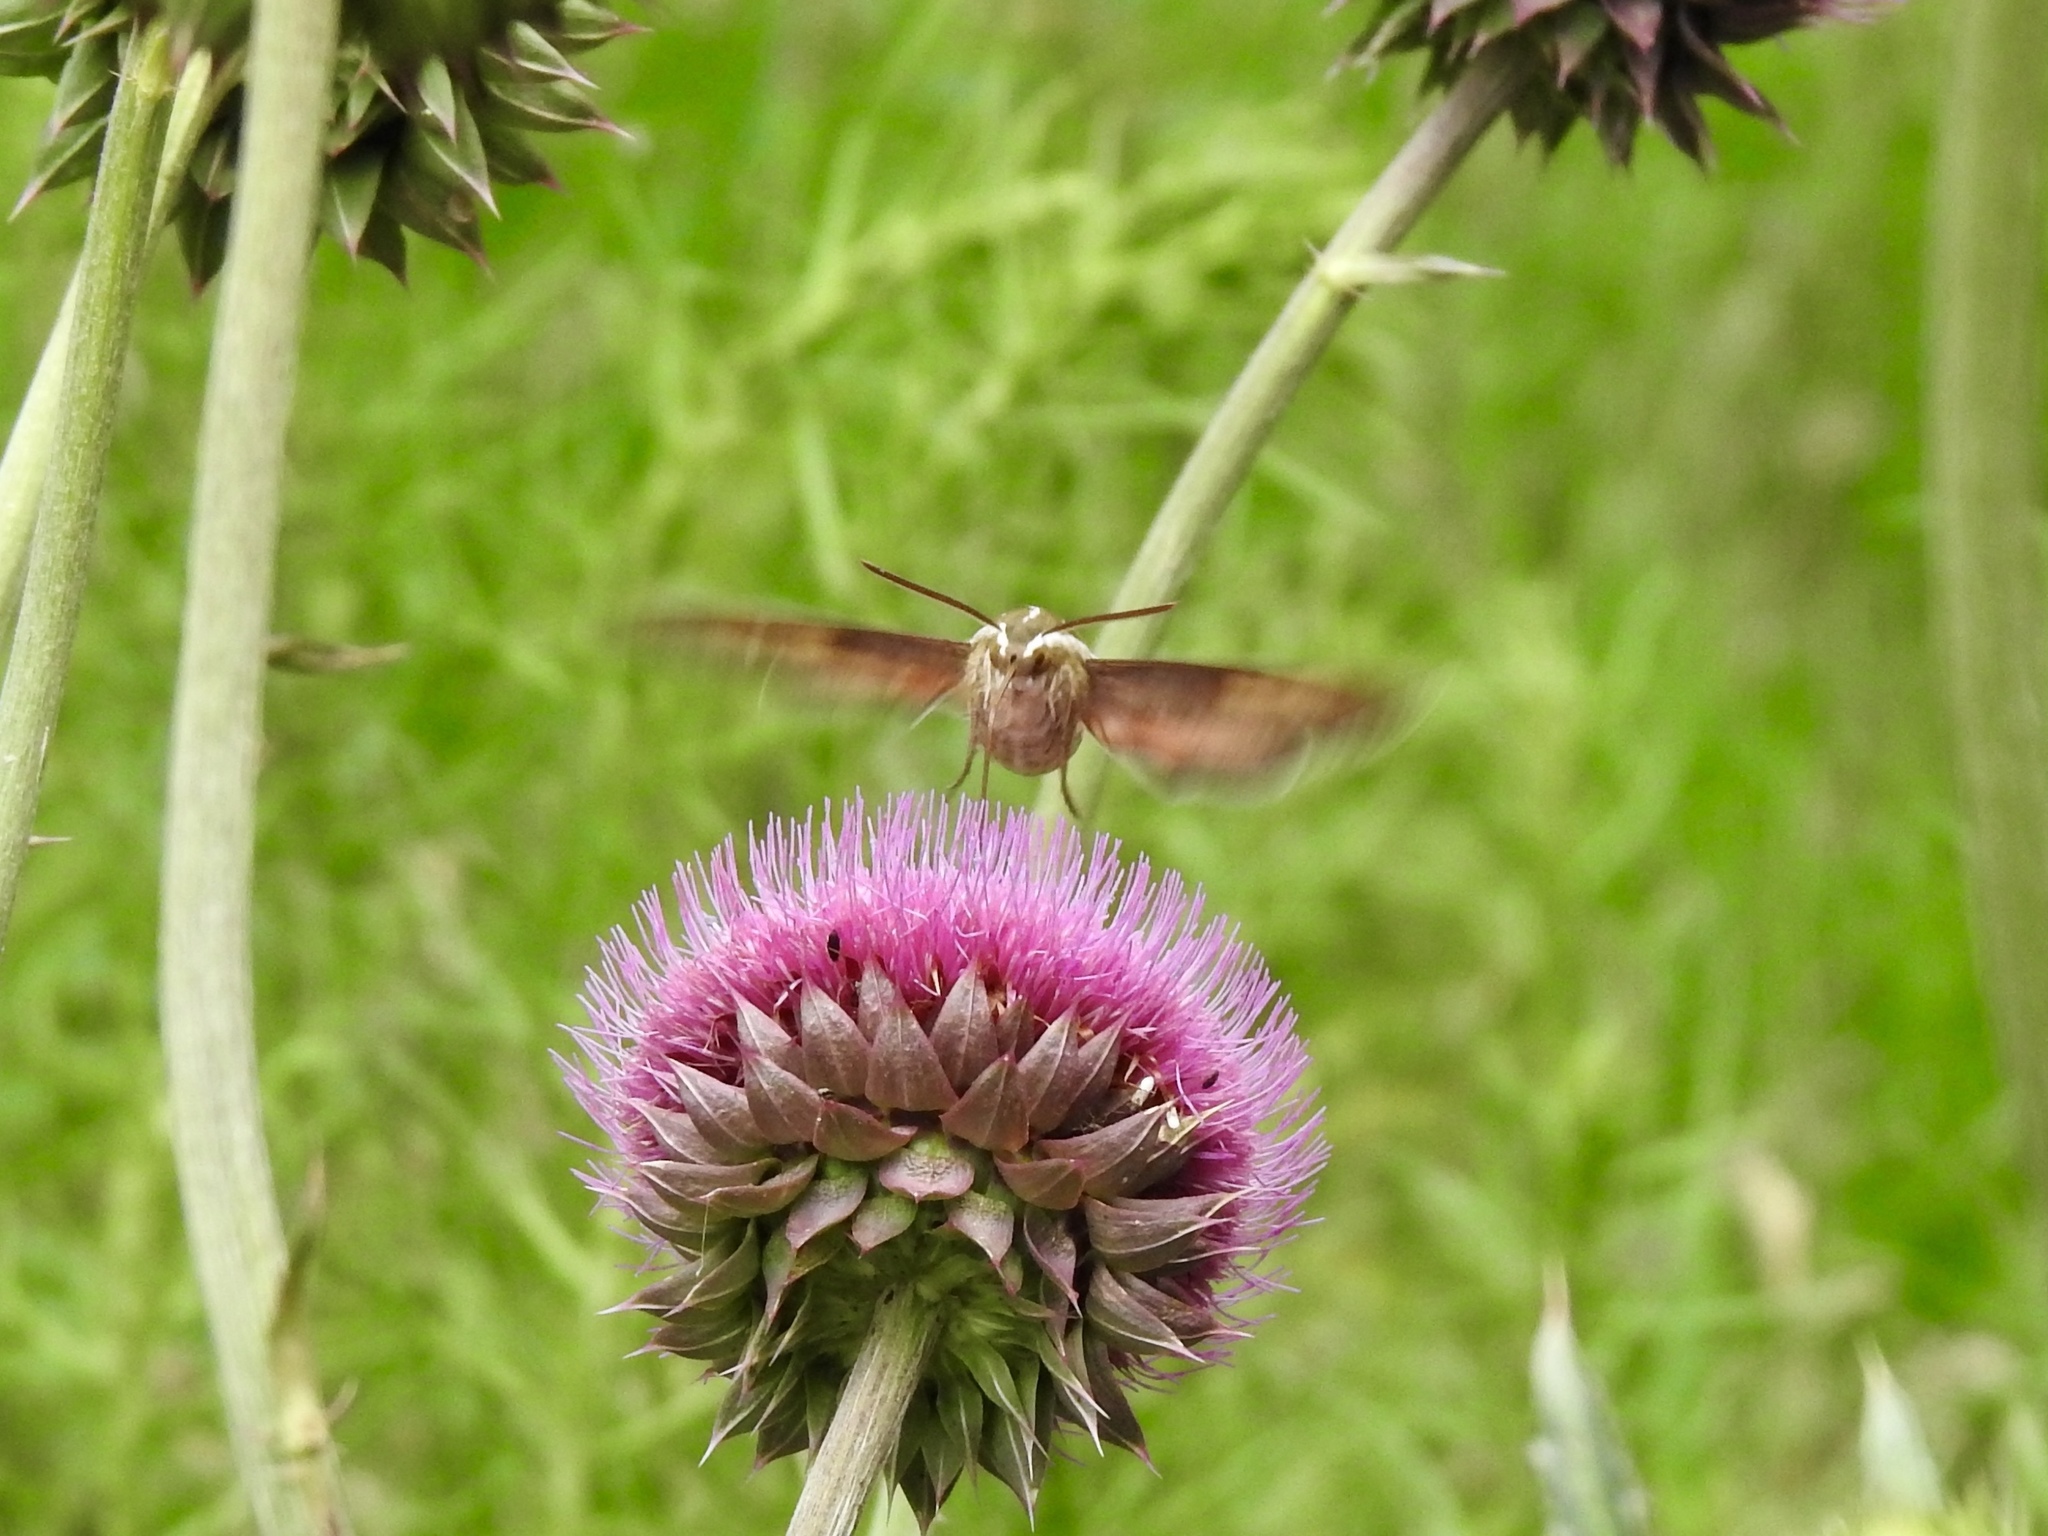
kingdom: Animalia
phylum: Arthropoda
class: Insecta
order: Lepidoptera
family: Sphingidae
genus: Hyles
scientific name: Hyles lineata
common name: White-lined sphinx
